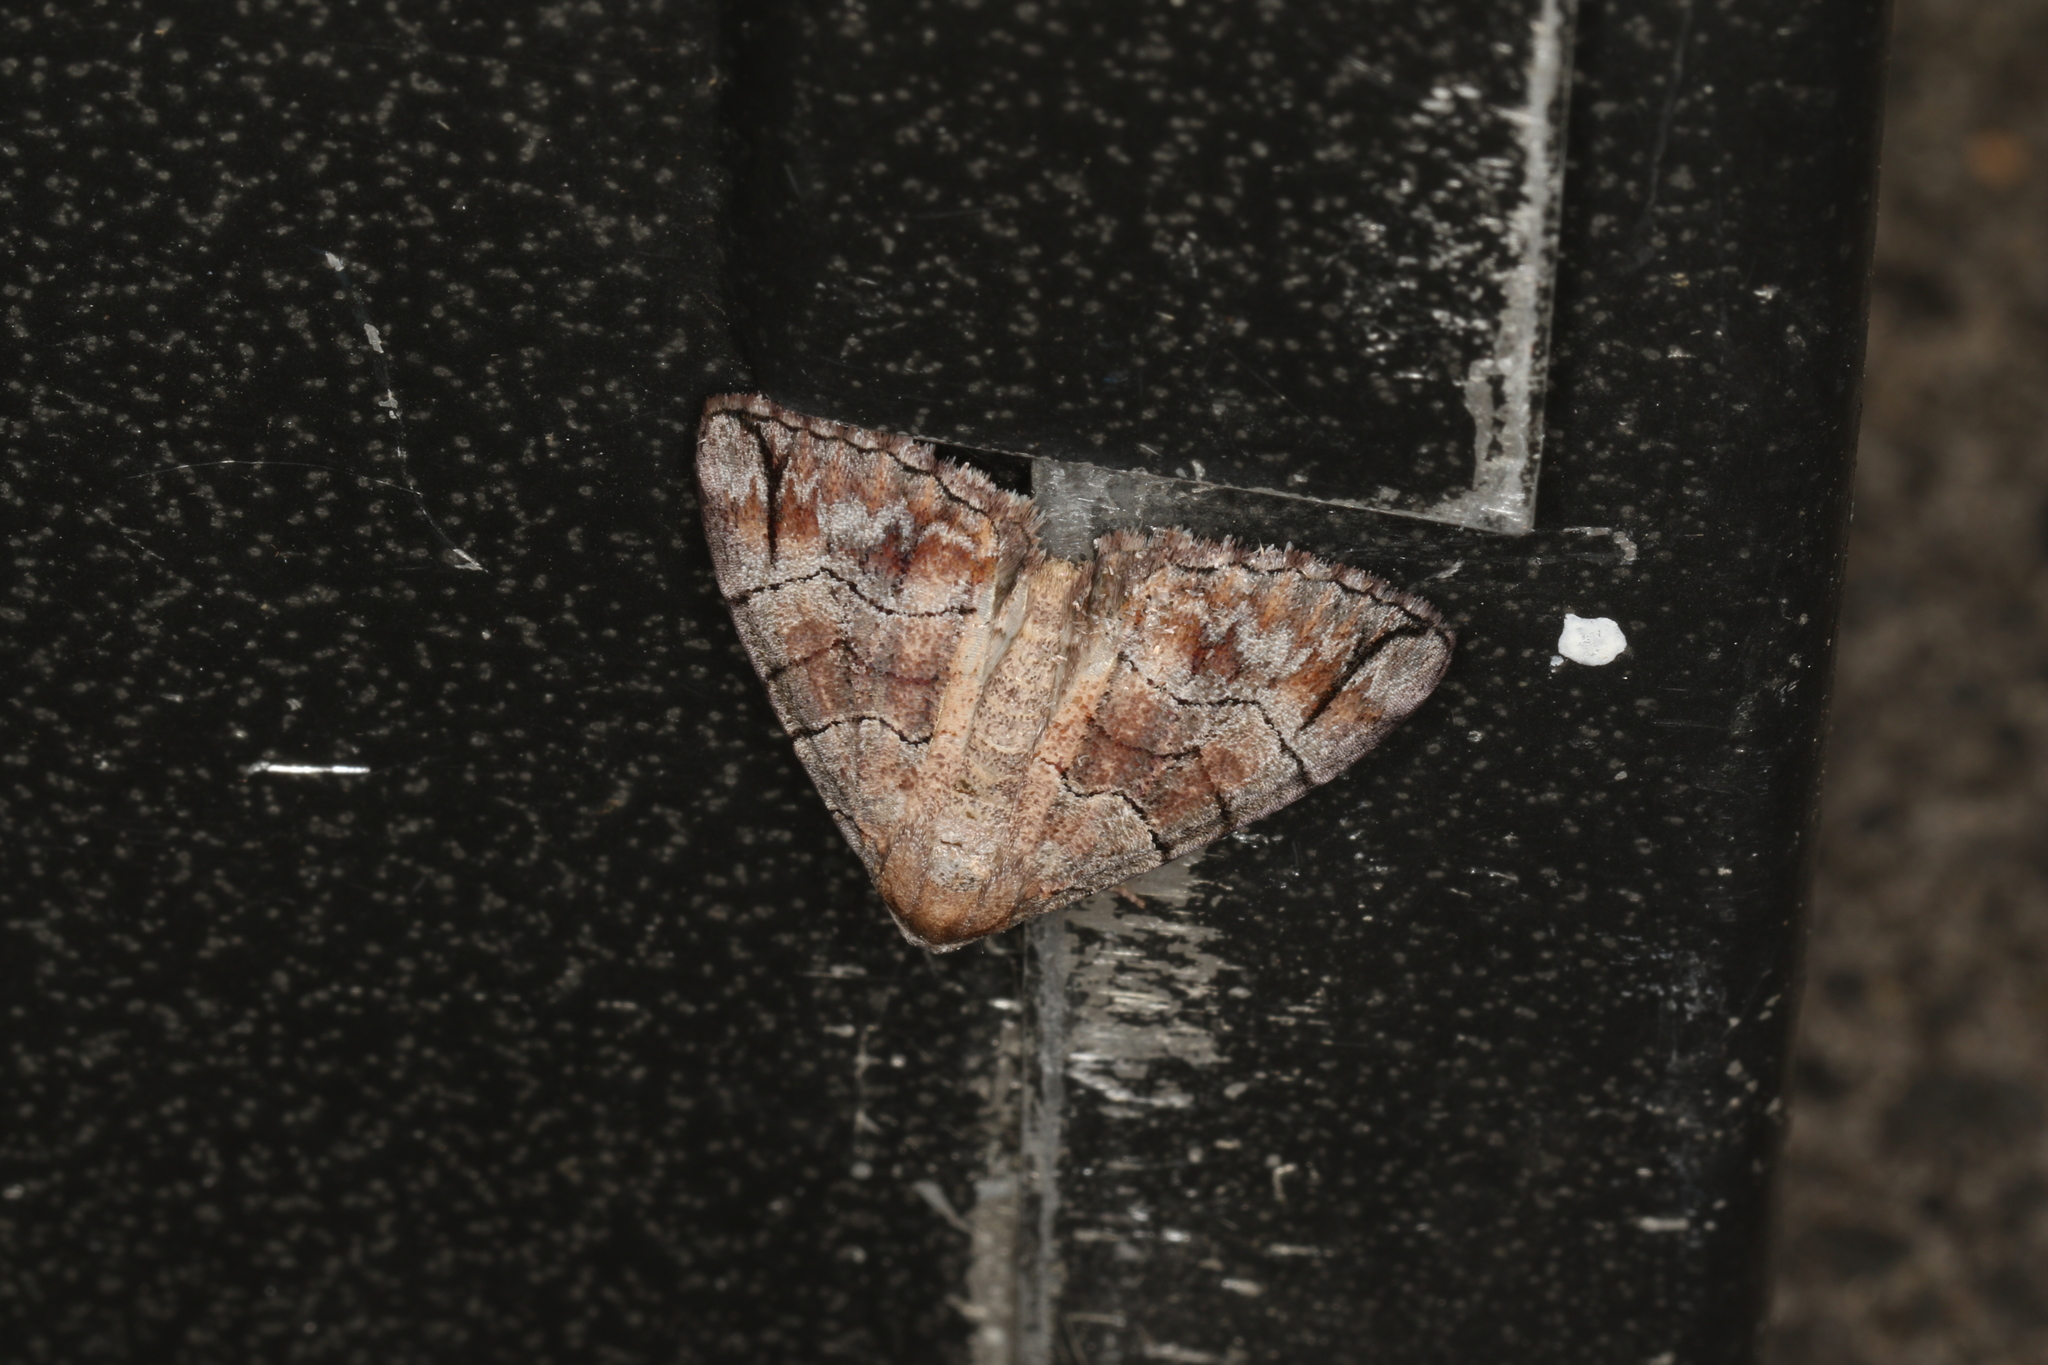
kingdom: Animalia
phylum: Arthropoda
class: Insecta
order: Lepidoptera
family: Geometridae
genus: Dysbatus
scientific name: Dysbatus stenodesma
